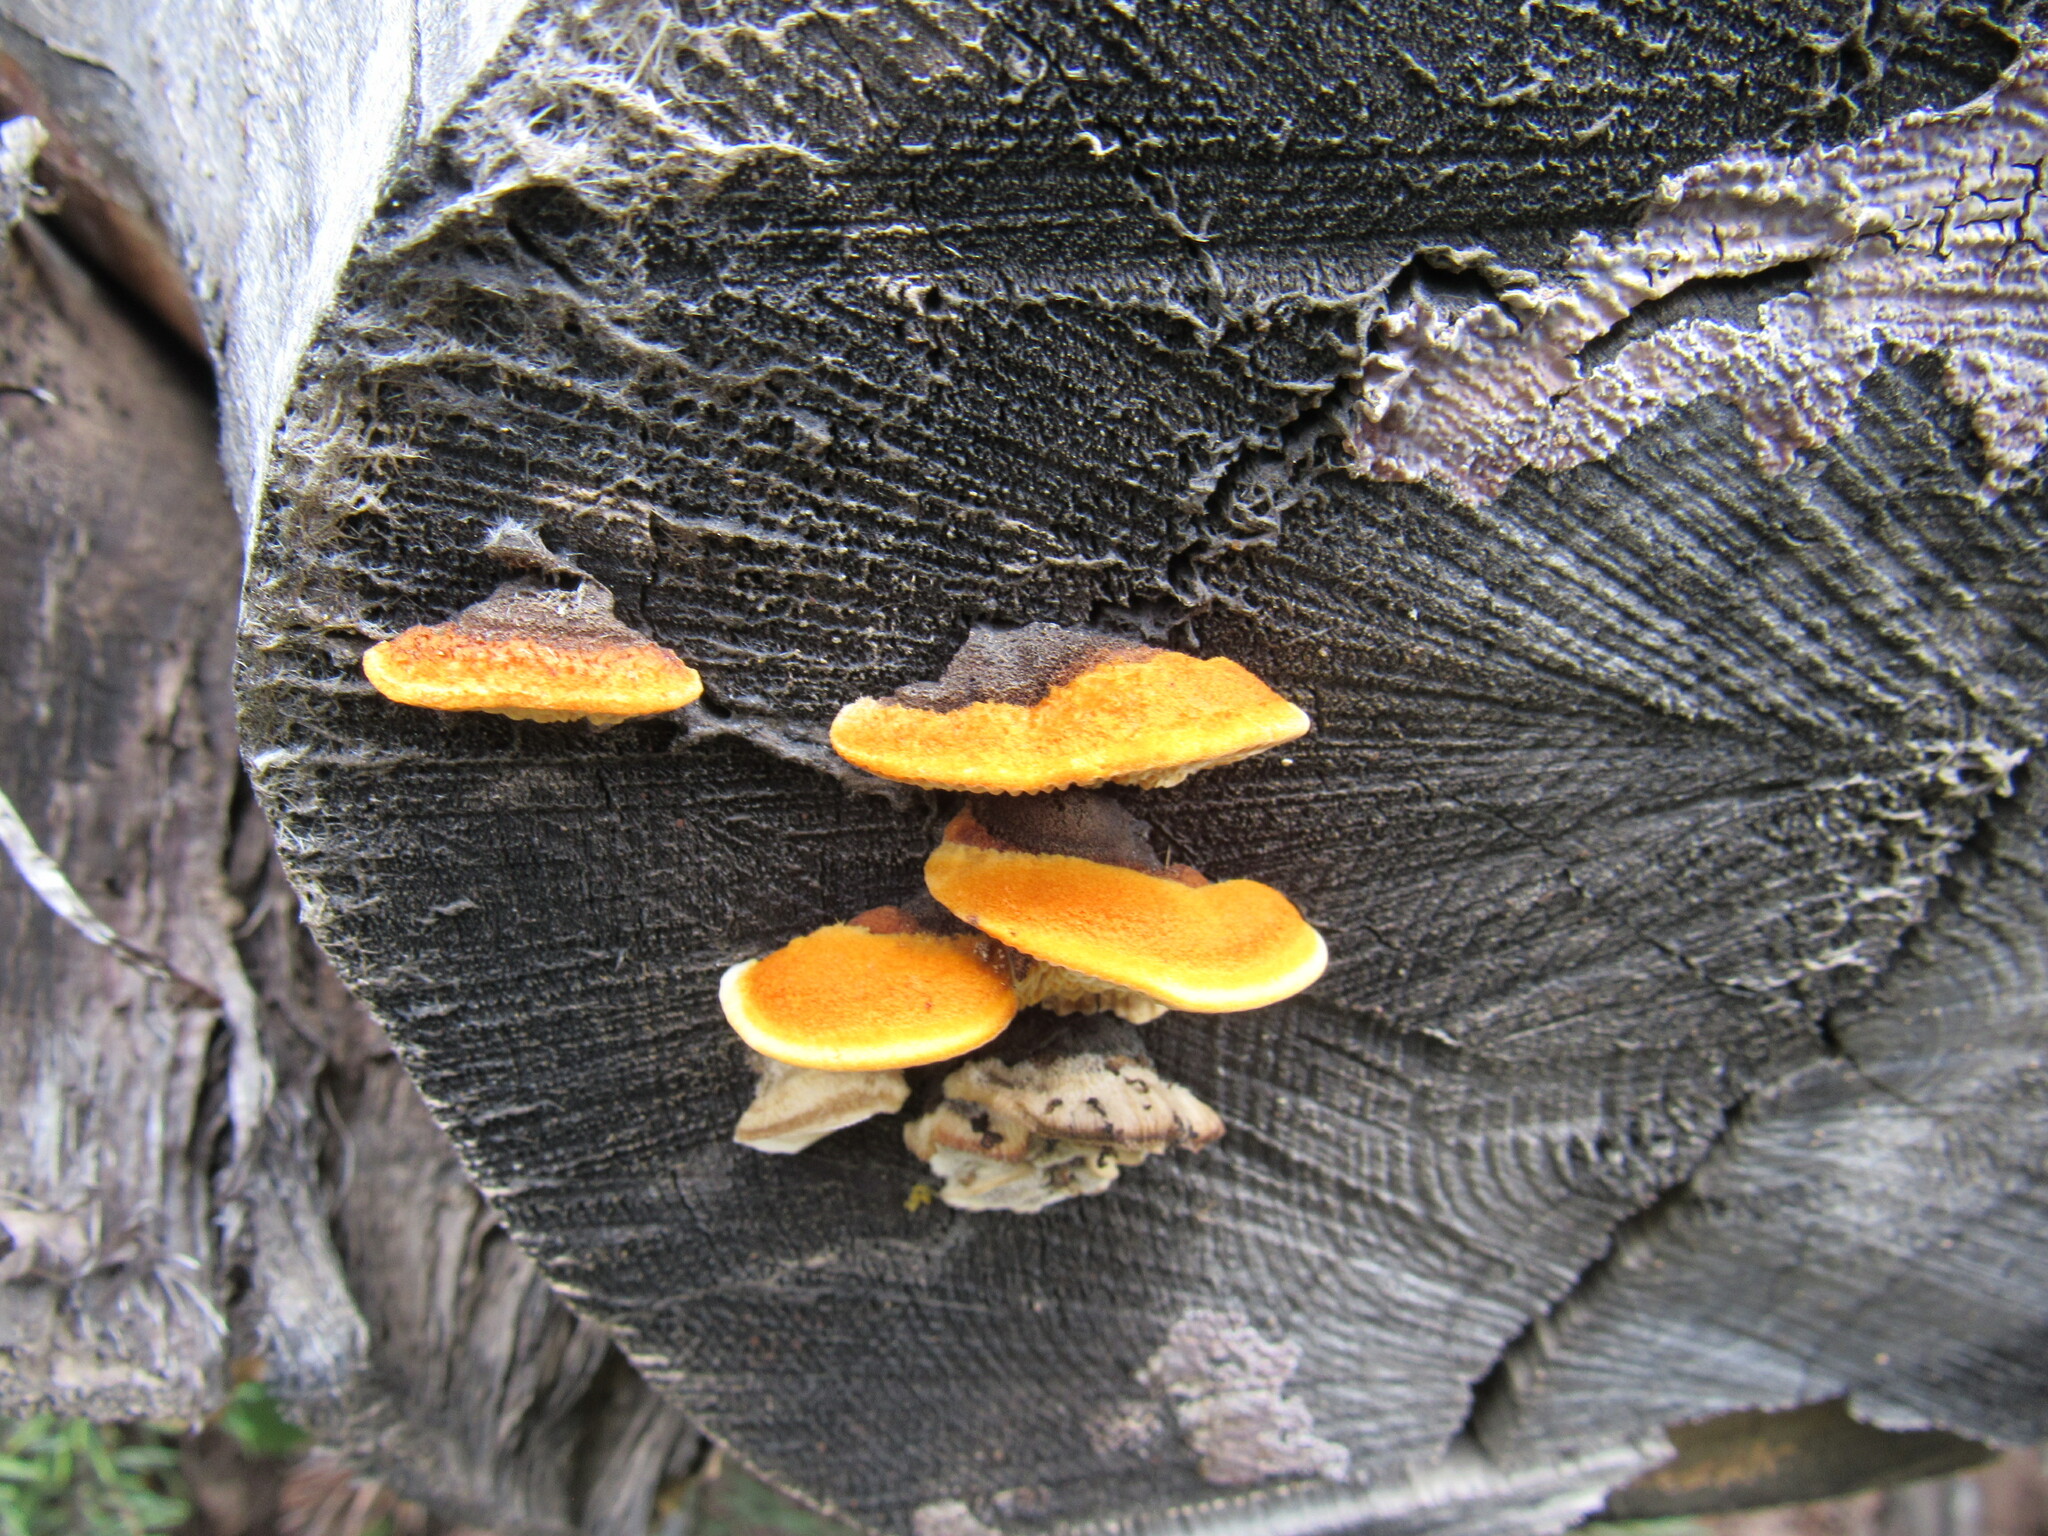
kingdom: Fungi
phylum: Basidiomycota
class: Agaricomycetes
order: Gloeophyllales
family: Gloeophyllaceae
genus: Gloeophyllum
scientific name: Gloeophyllum sepiarium
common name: Conifer mazegill
